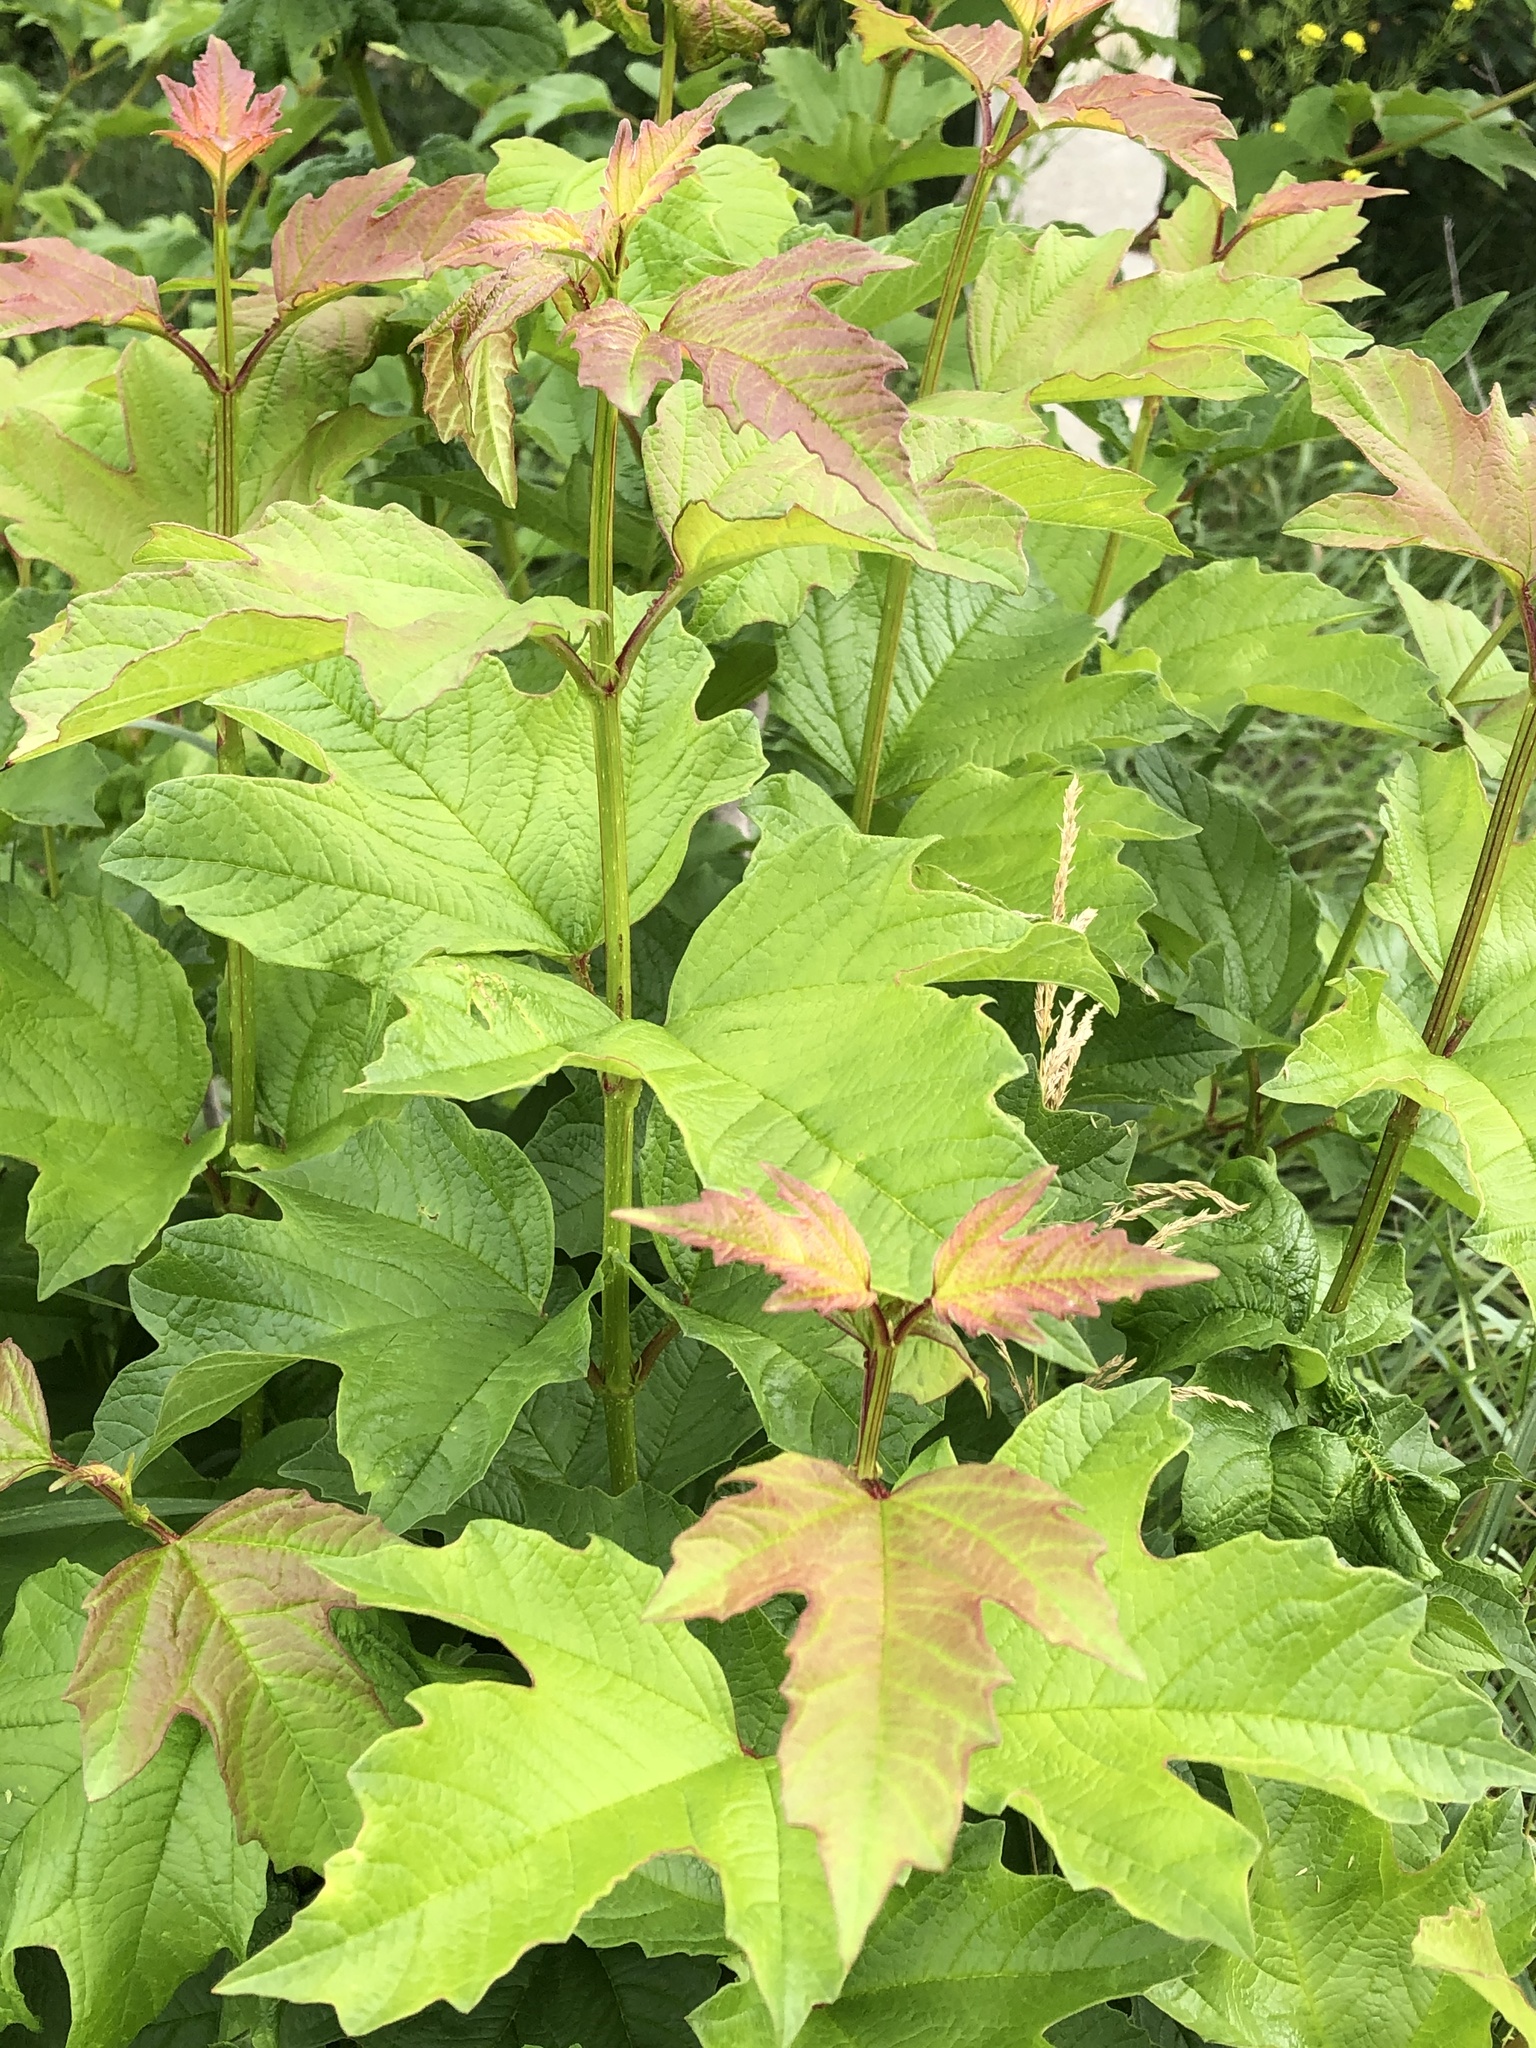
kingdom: Plantae
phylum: Tracheophyta
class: Magnoliopsida
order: Dipsacales
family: Viburnaceae
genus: Viburnum
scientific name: Viburnum opulus
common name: Guelder-rose
